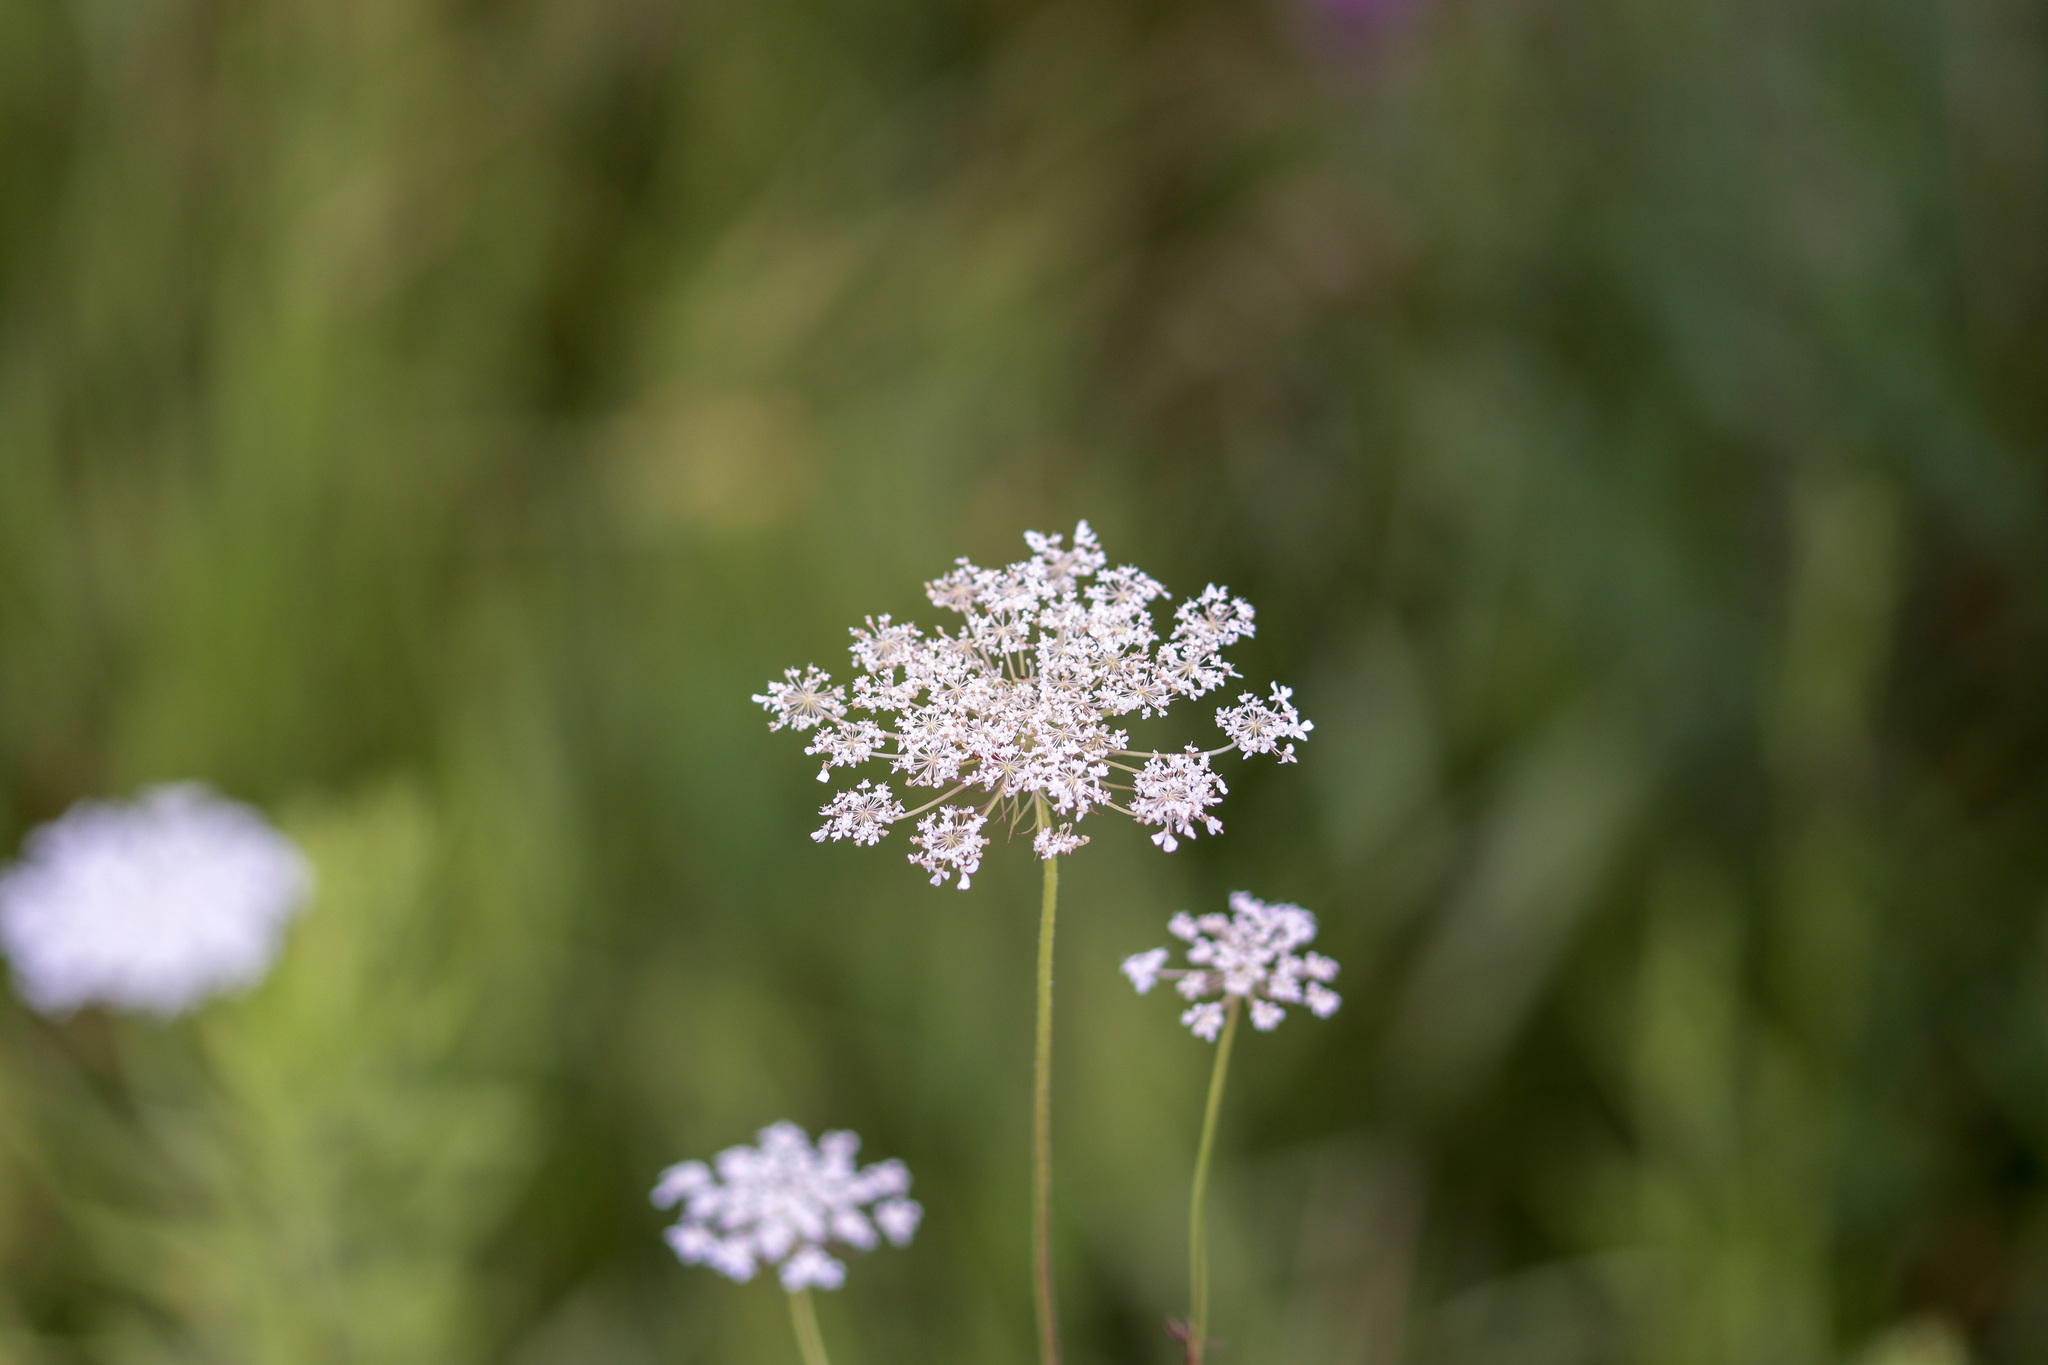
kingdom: Plantae
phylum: Tracheophyta
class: Magnoliopsida
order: Apiales
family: Apiaceae
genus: Daucus
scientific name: Daucus carota
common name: Wild carrot
